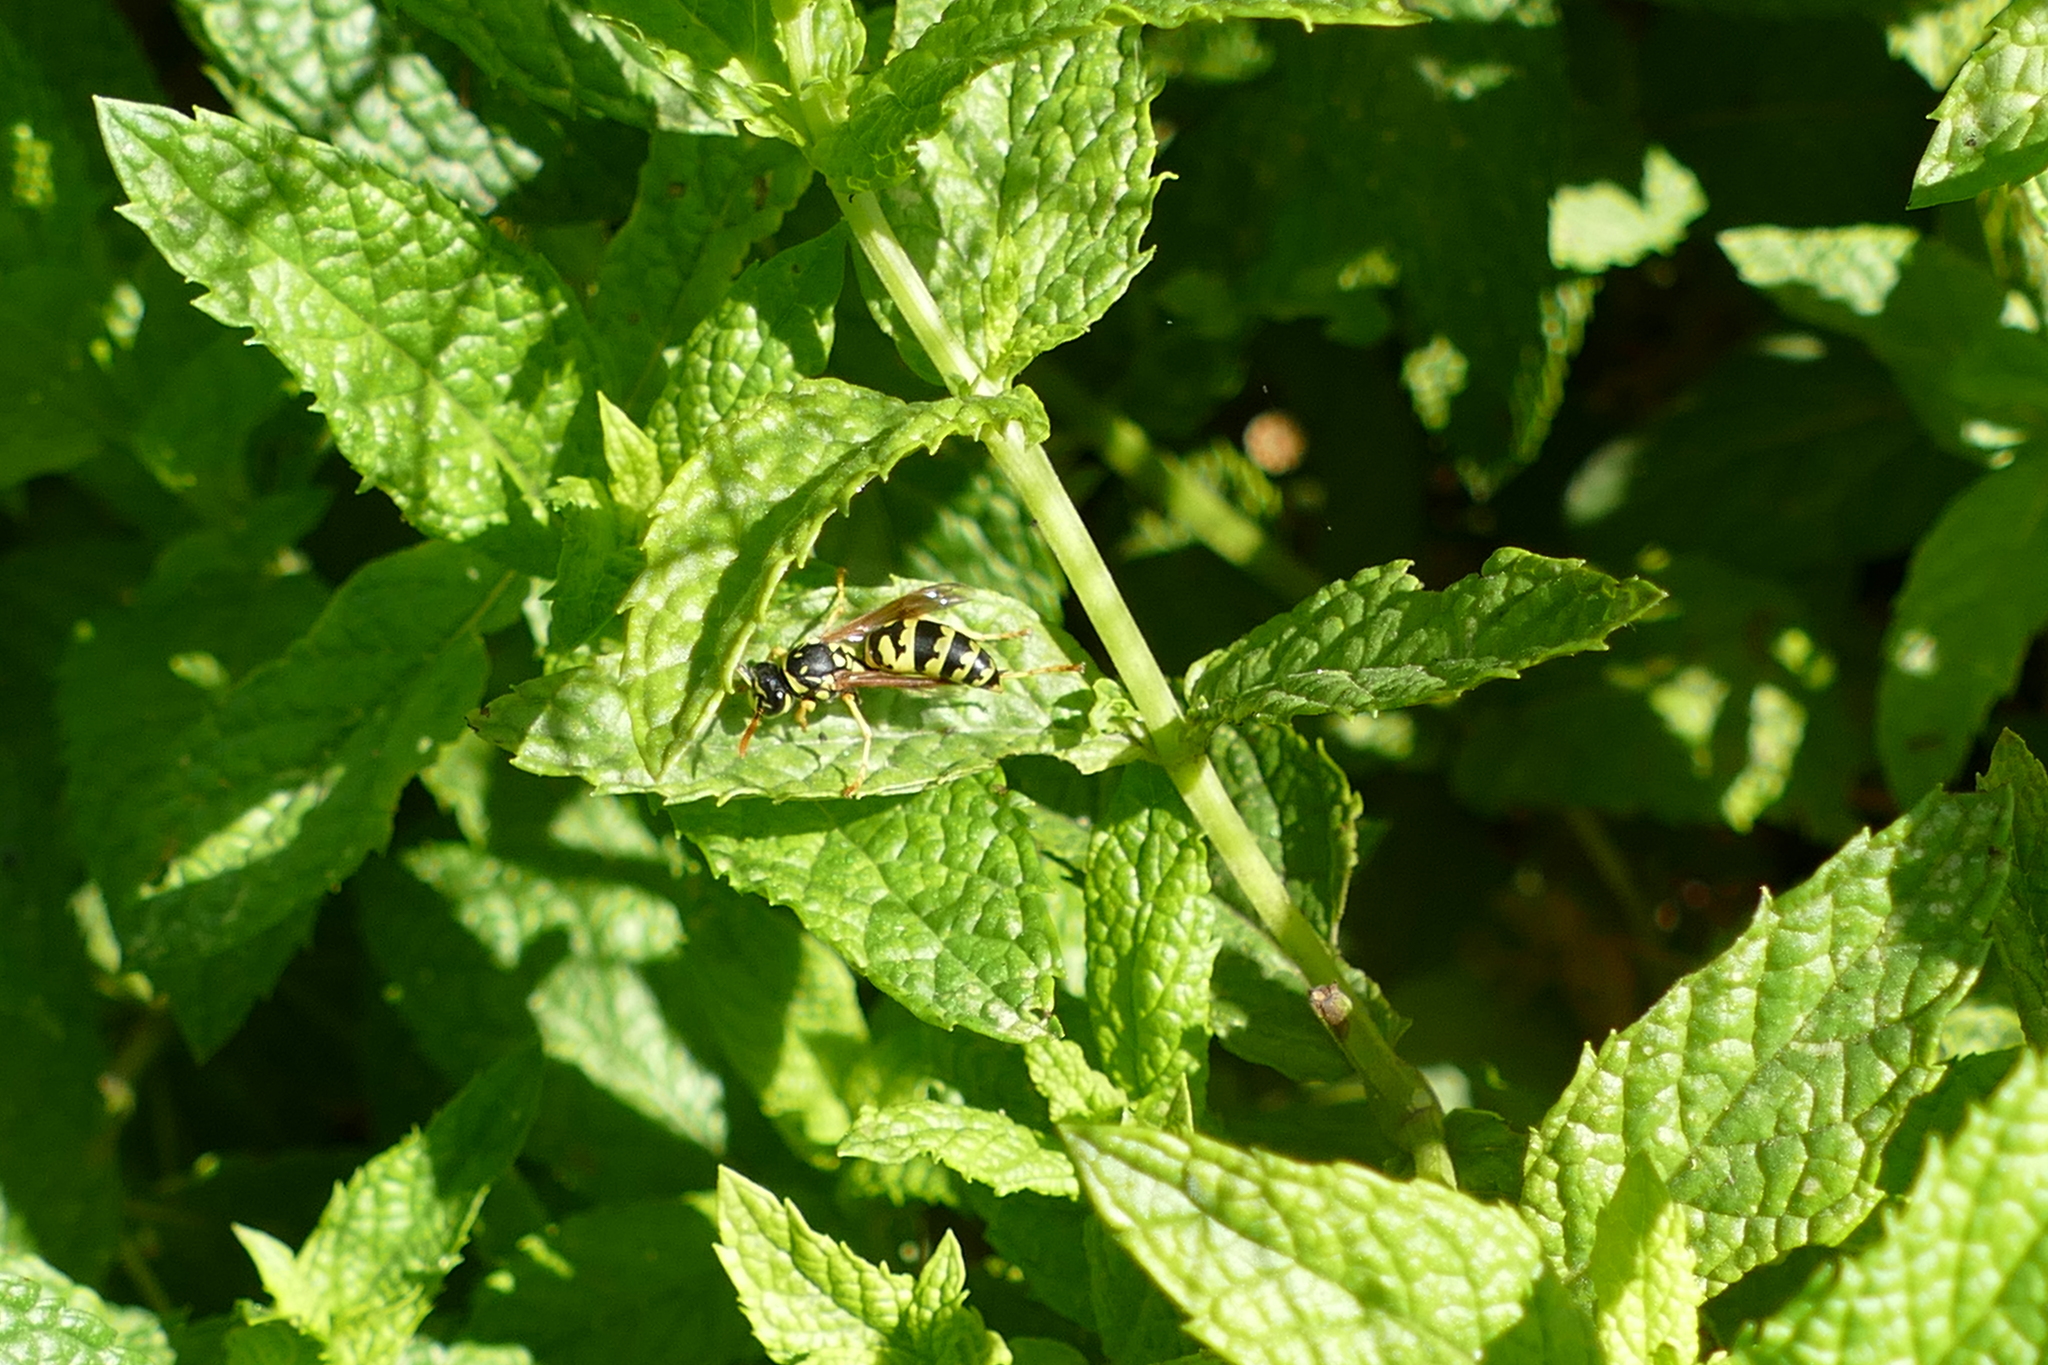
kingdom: Animalia
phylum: Arthropoda
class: Insecta
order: Hymenoptera
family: Eumenidae
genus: Polistes
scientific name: Polistes dominula
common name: Paper wasp
